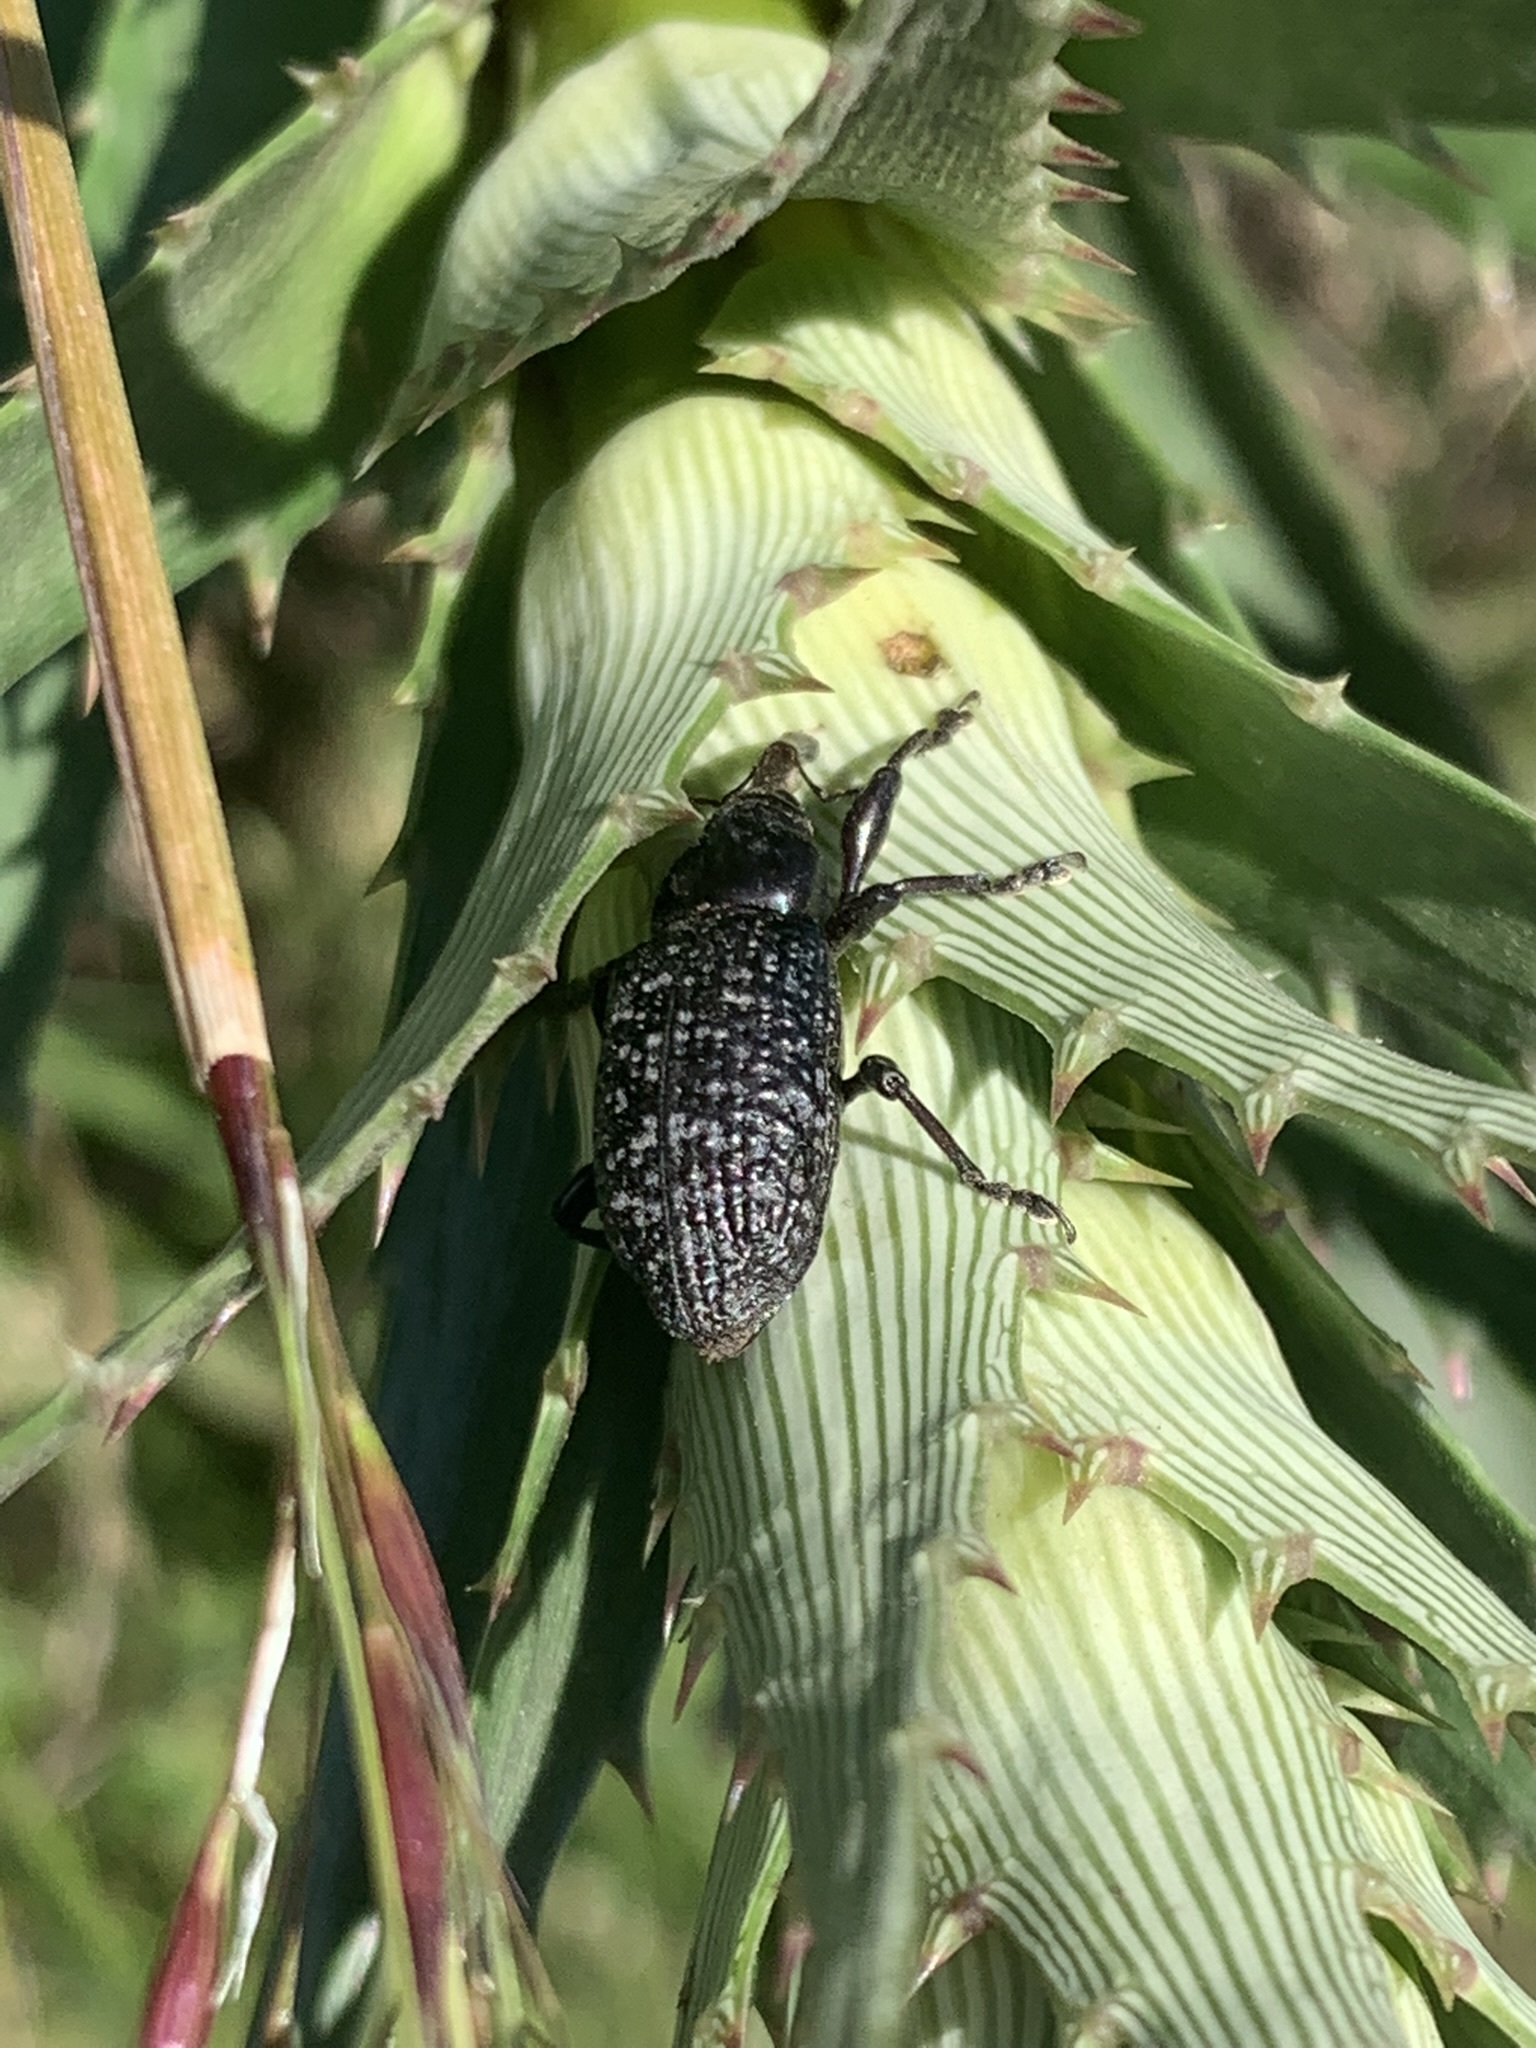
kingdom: Animalia
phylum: Arthropoda
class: Insecta
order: Coleoptera
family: Curculionidae
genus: Heilipodus
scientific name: Heilipodus scabripennis
